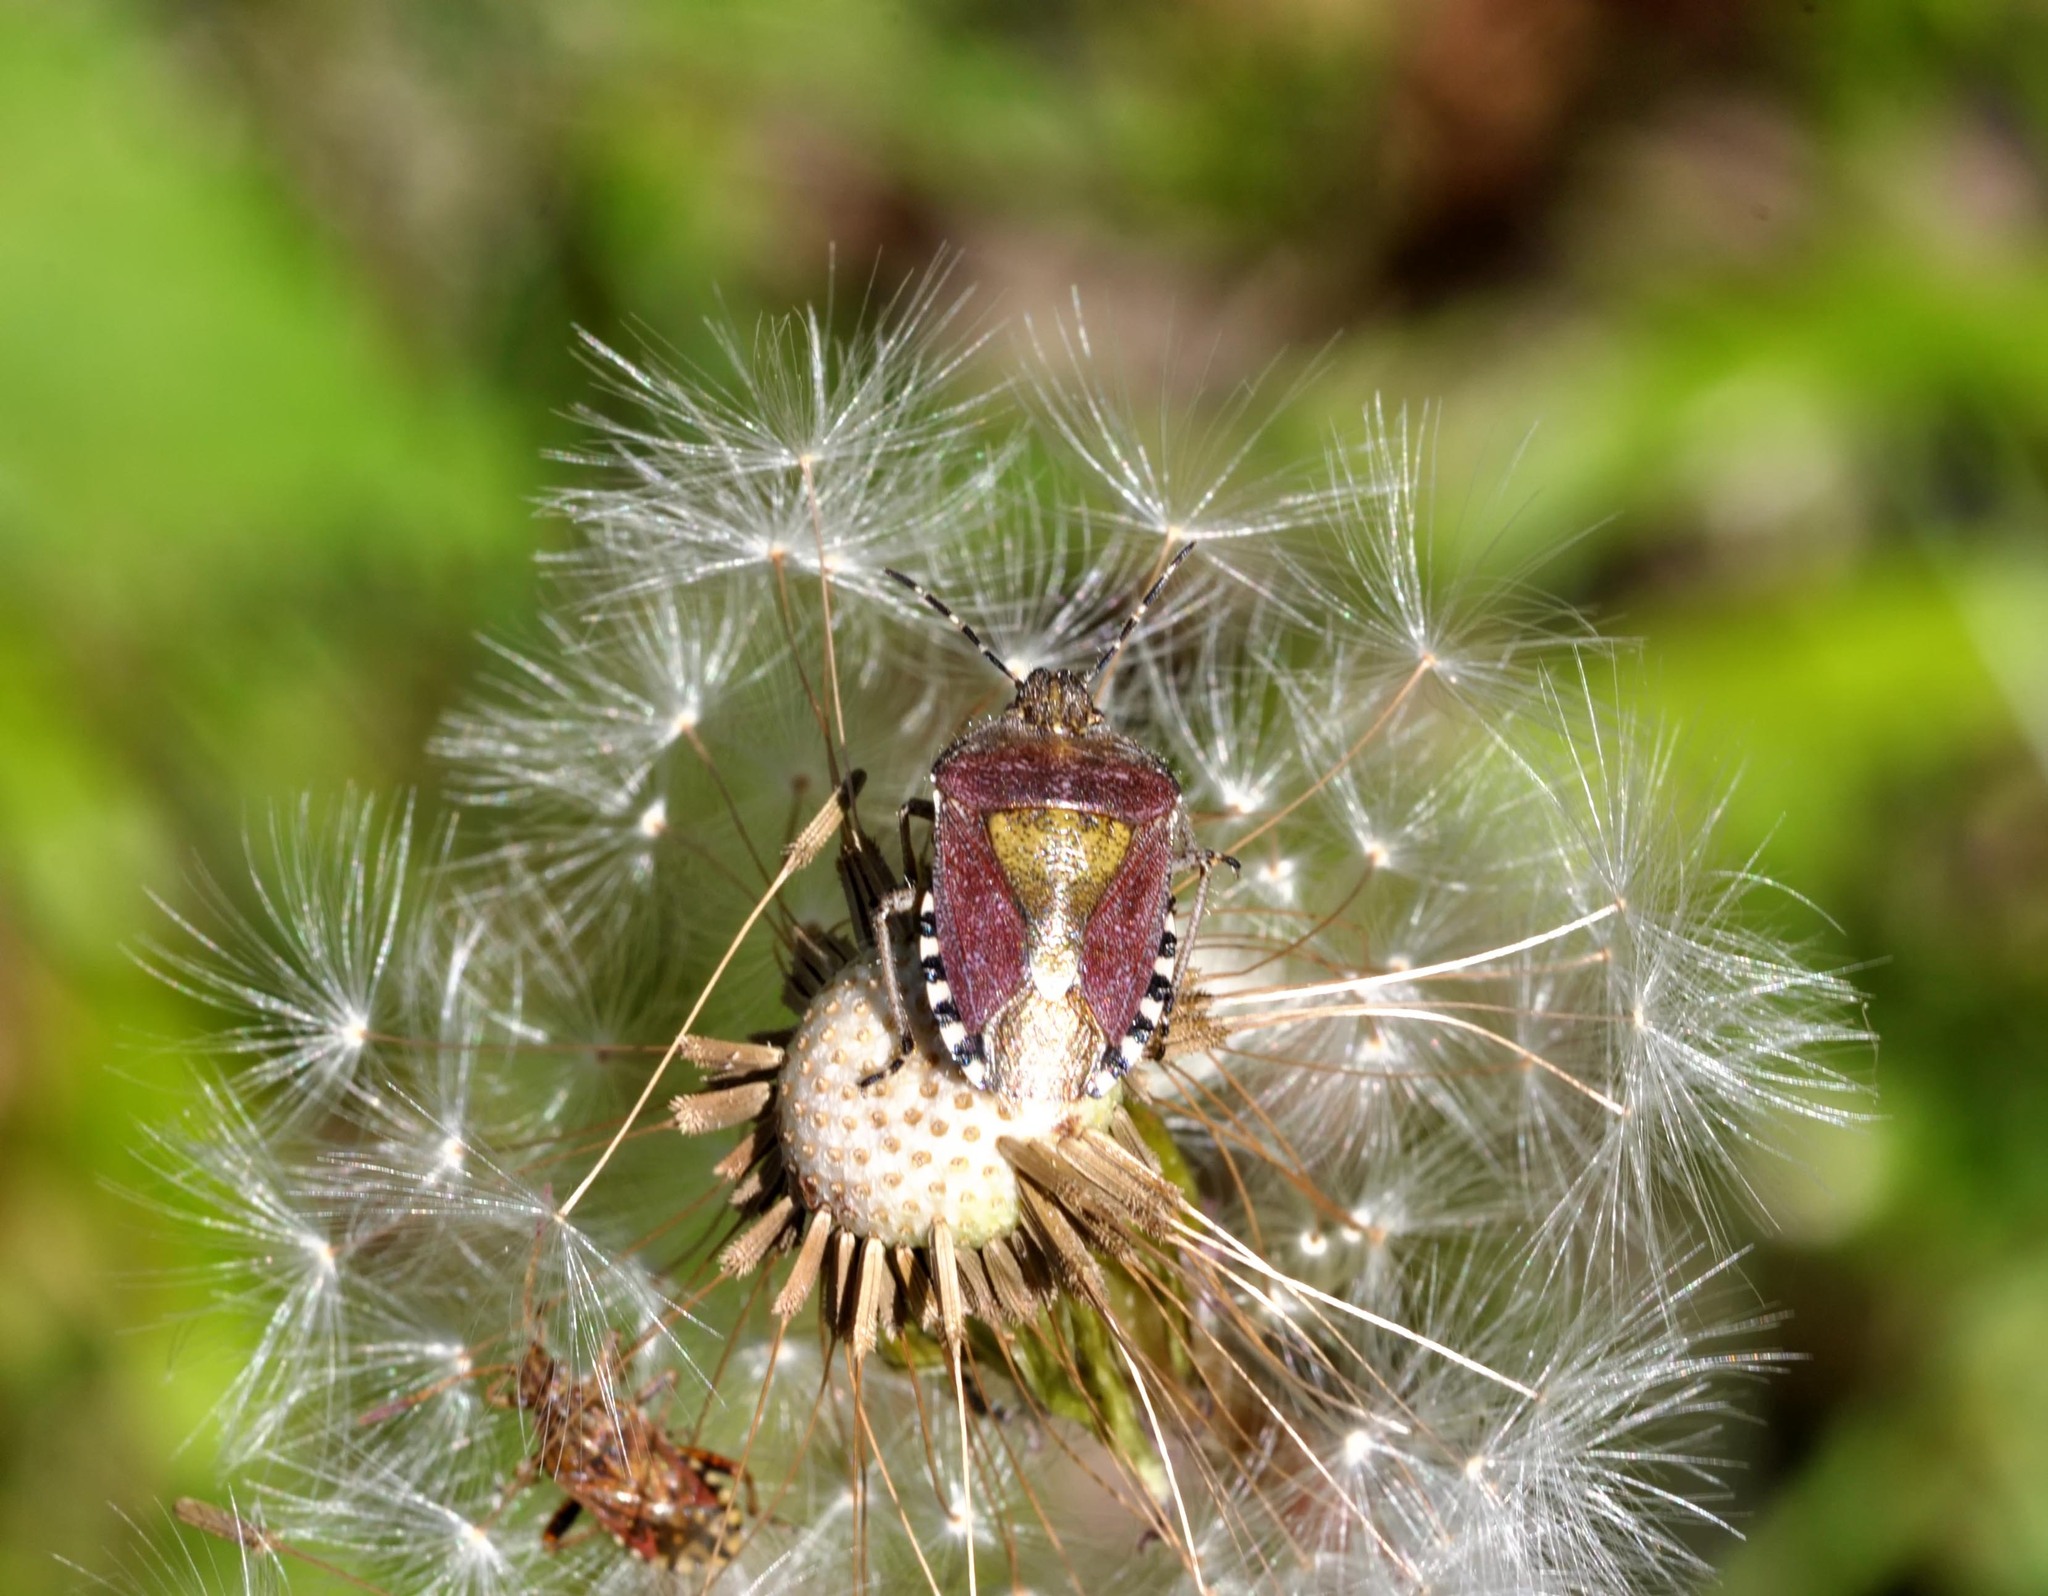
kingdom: Animalia
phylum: Arthropoda
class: Insecta
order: Hemiptera
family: Pentatomidae
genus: Dolycoris
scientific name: Dolycoris baccarum
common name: Sloe bug
